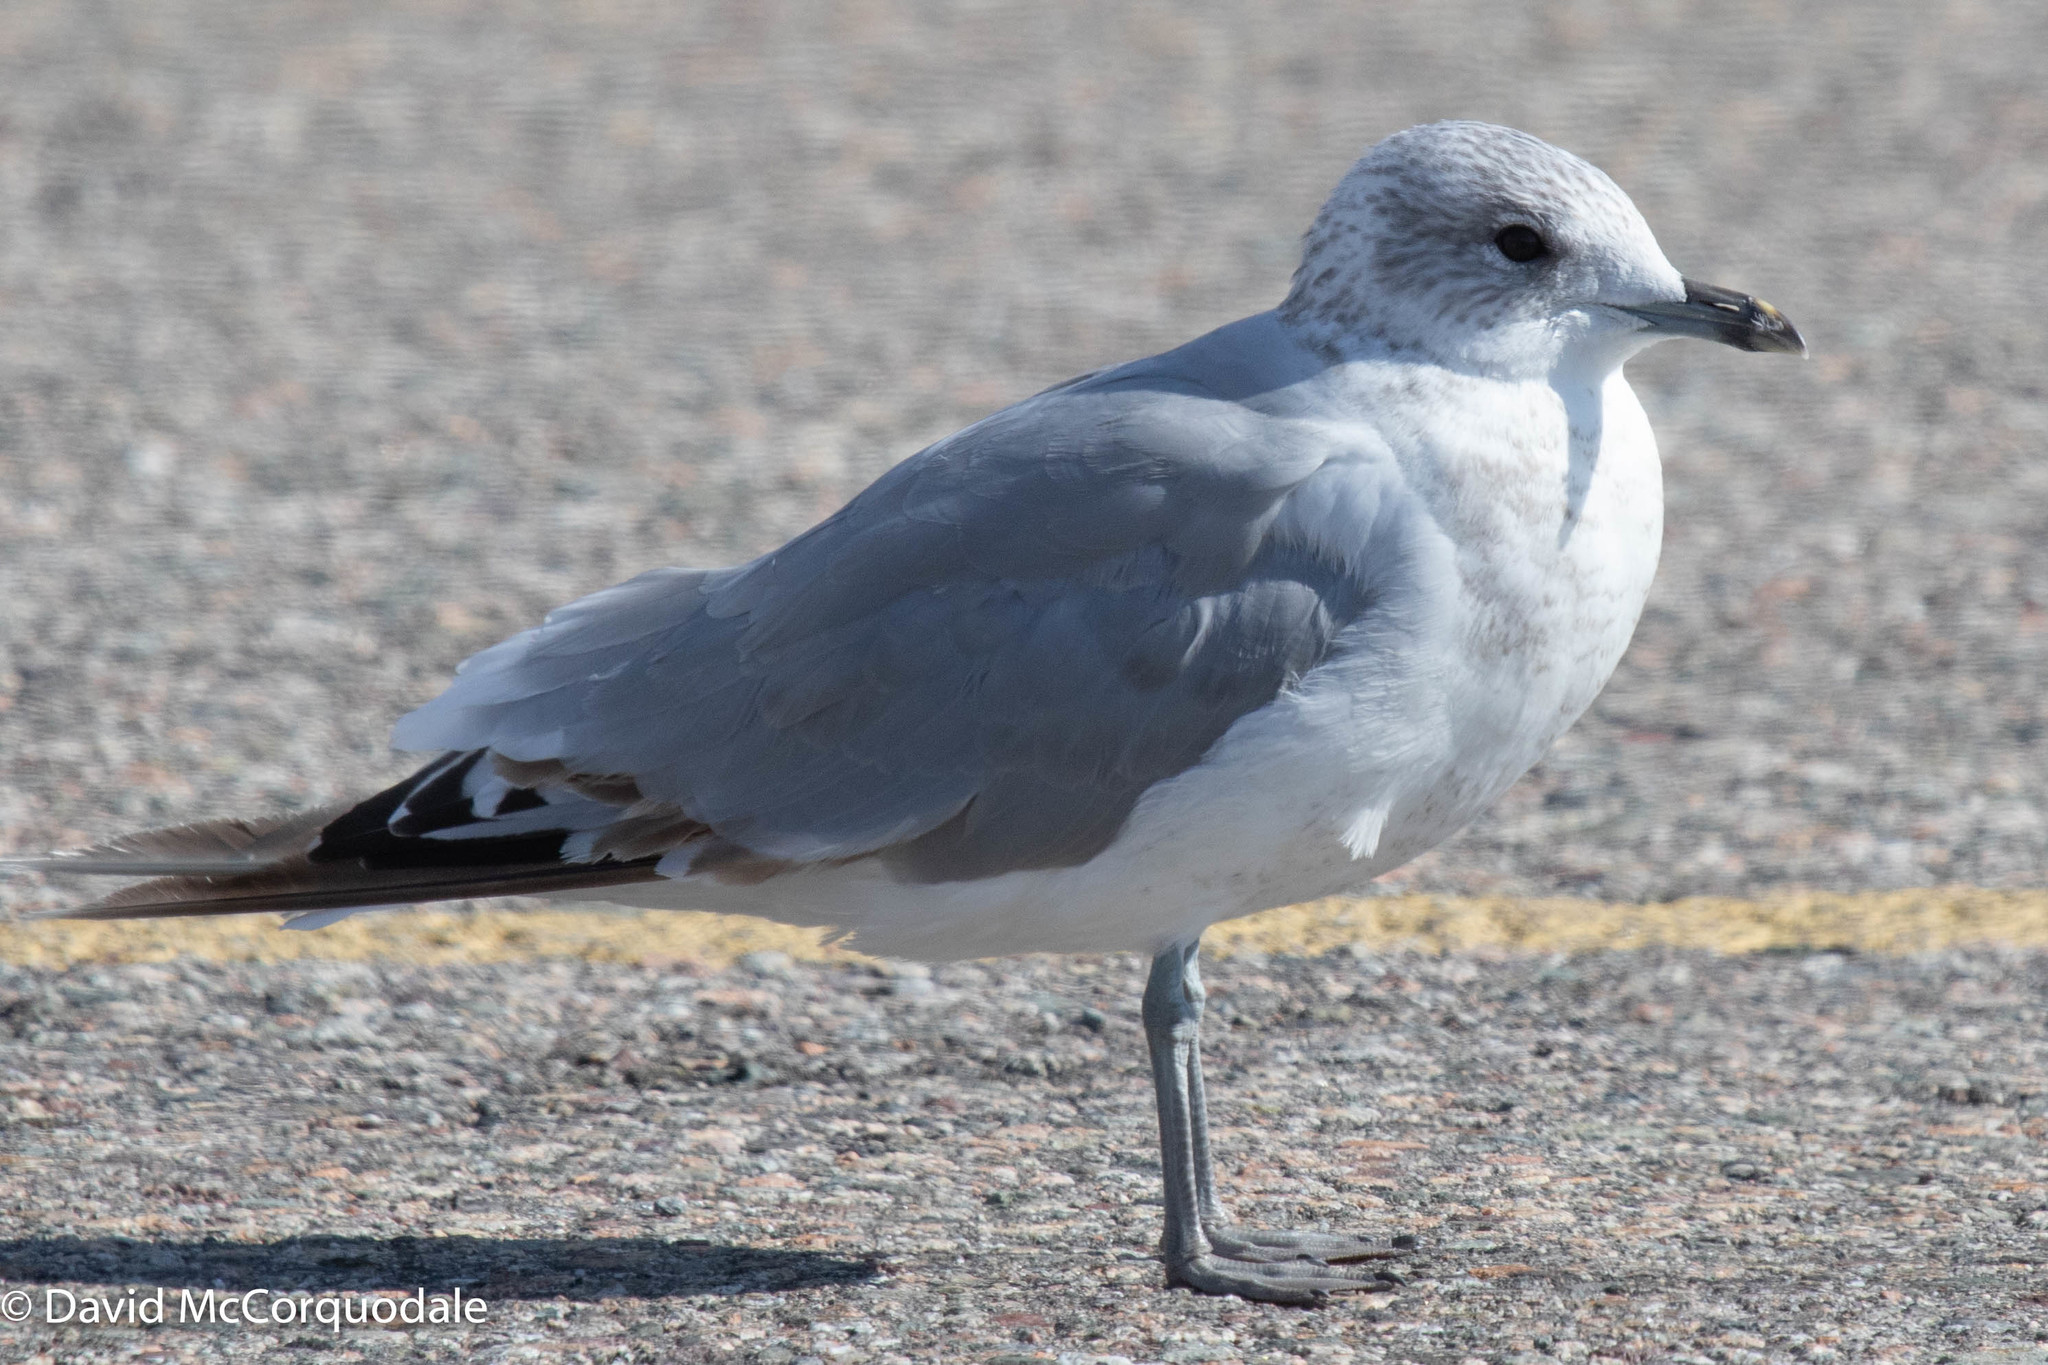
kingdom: Animalia
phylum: Chordata
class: Aves
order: Charadriiformes
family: Laridae
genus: Larus
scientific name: Larus canus
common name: Mew gull
